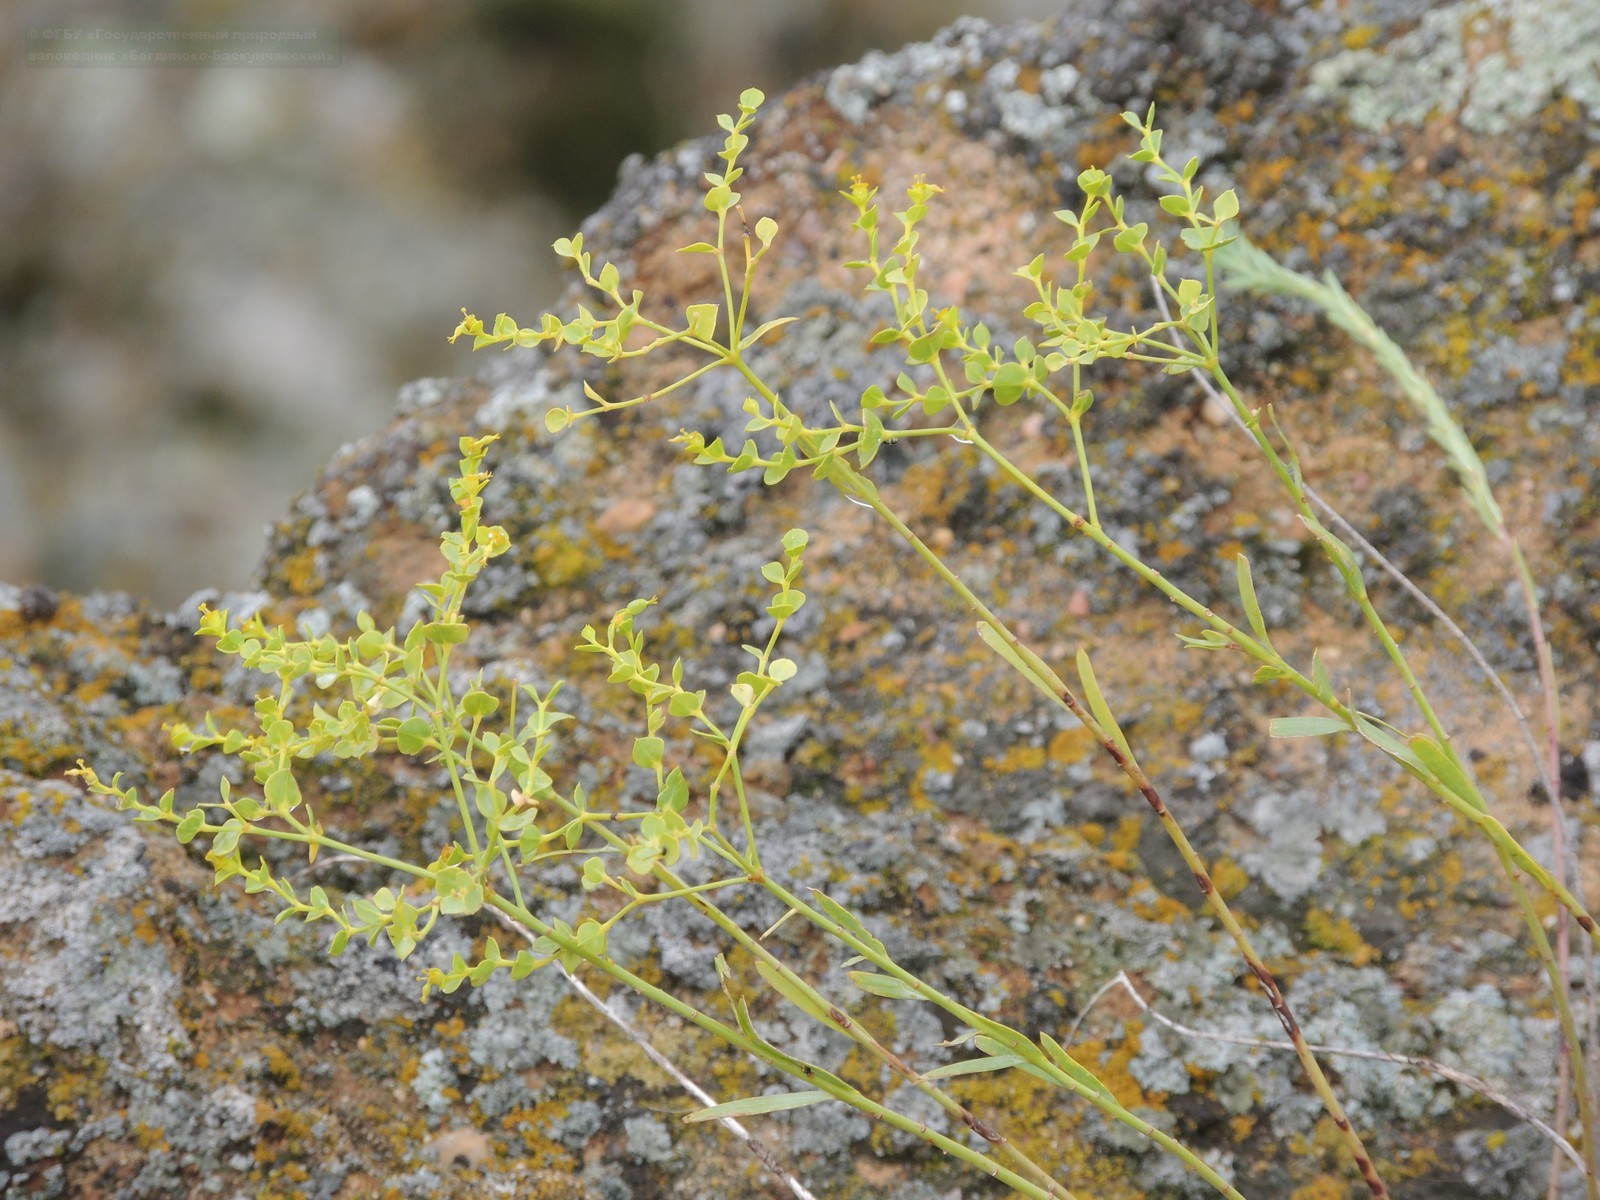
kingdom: Plantae
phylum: Tracheophyta
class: Magnoliopsida
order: Malpighiales
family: Euphorbiaceae
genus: Euphorbia
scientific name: Euphorbia seguieriana
